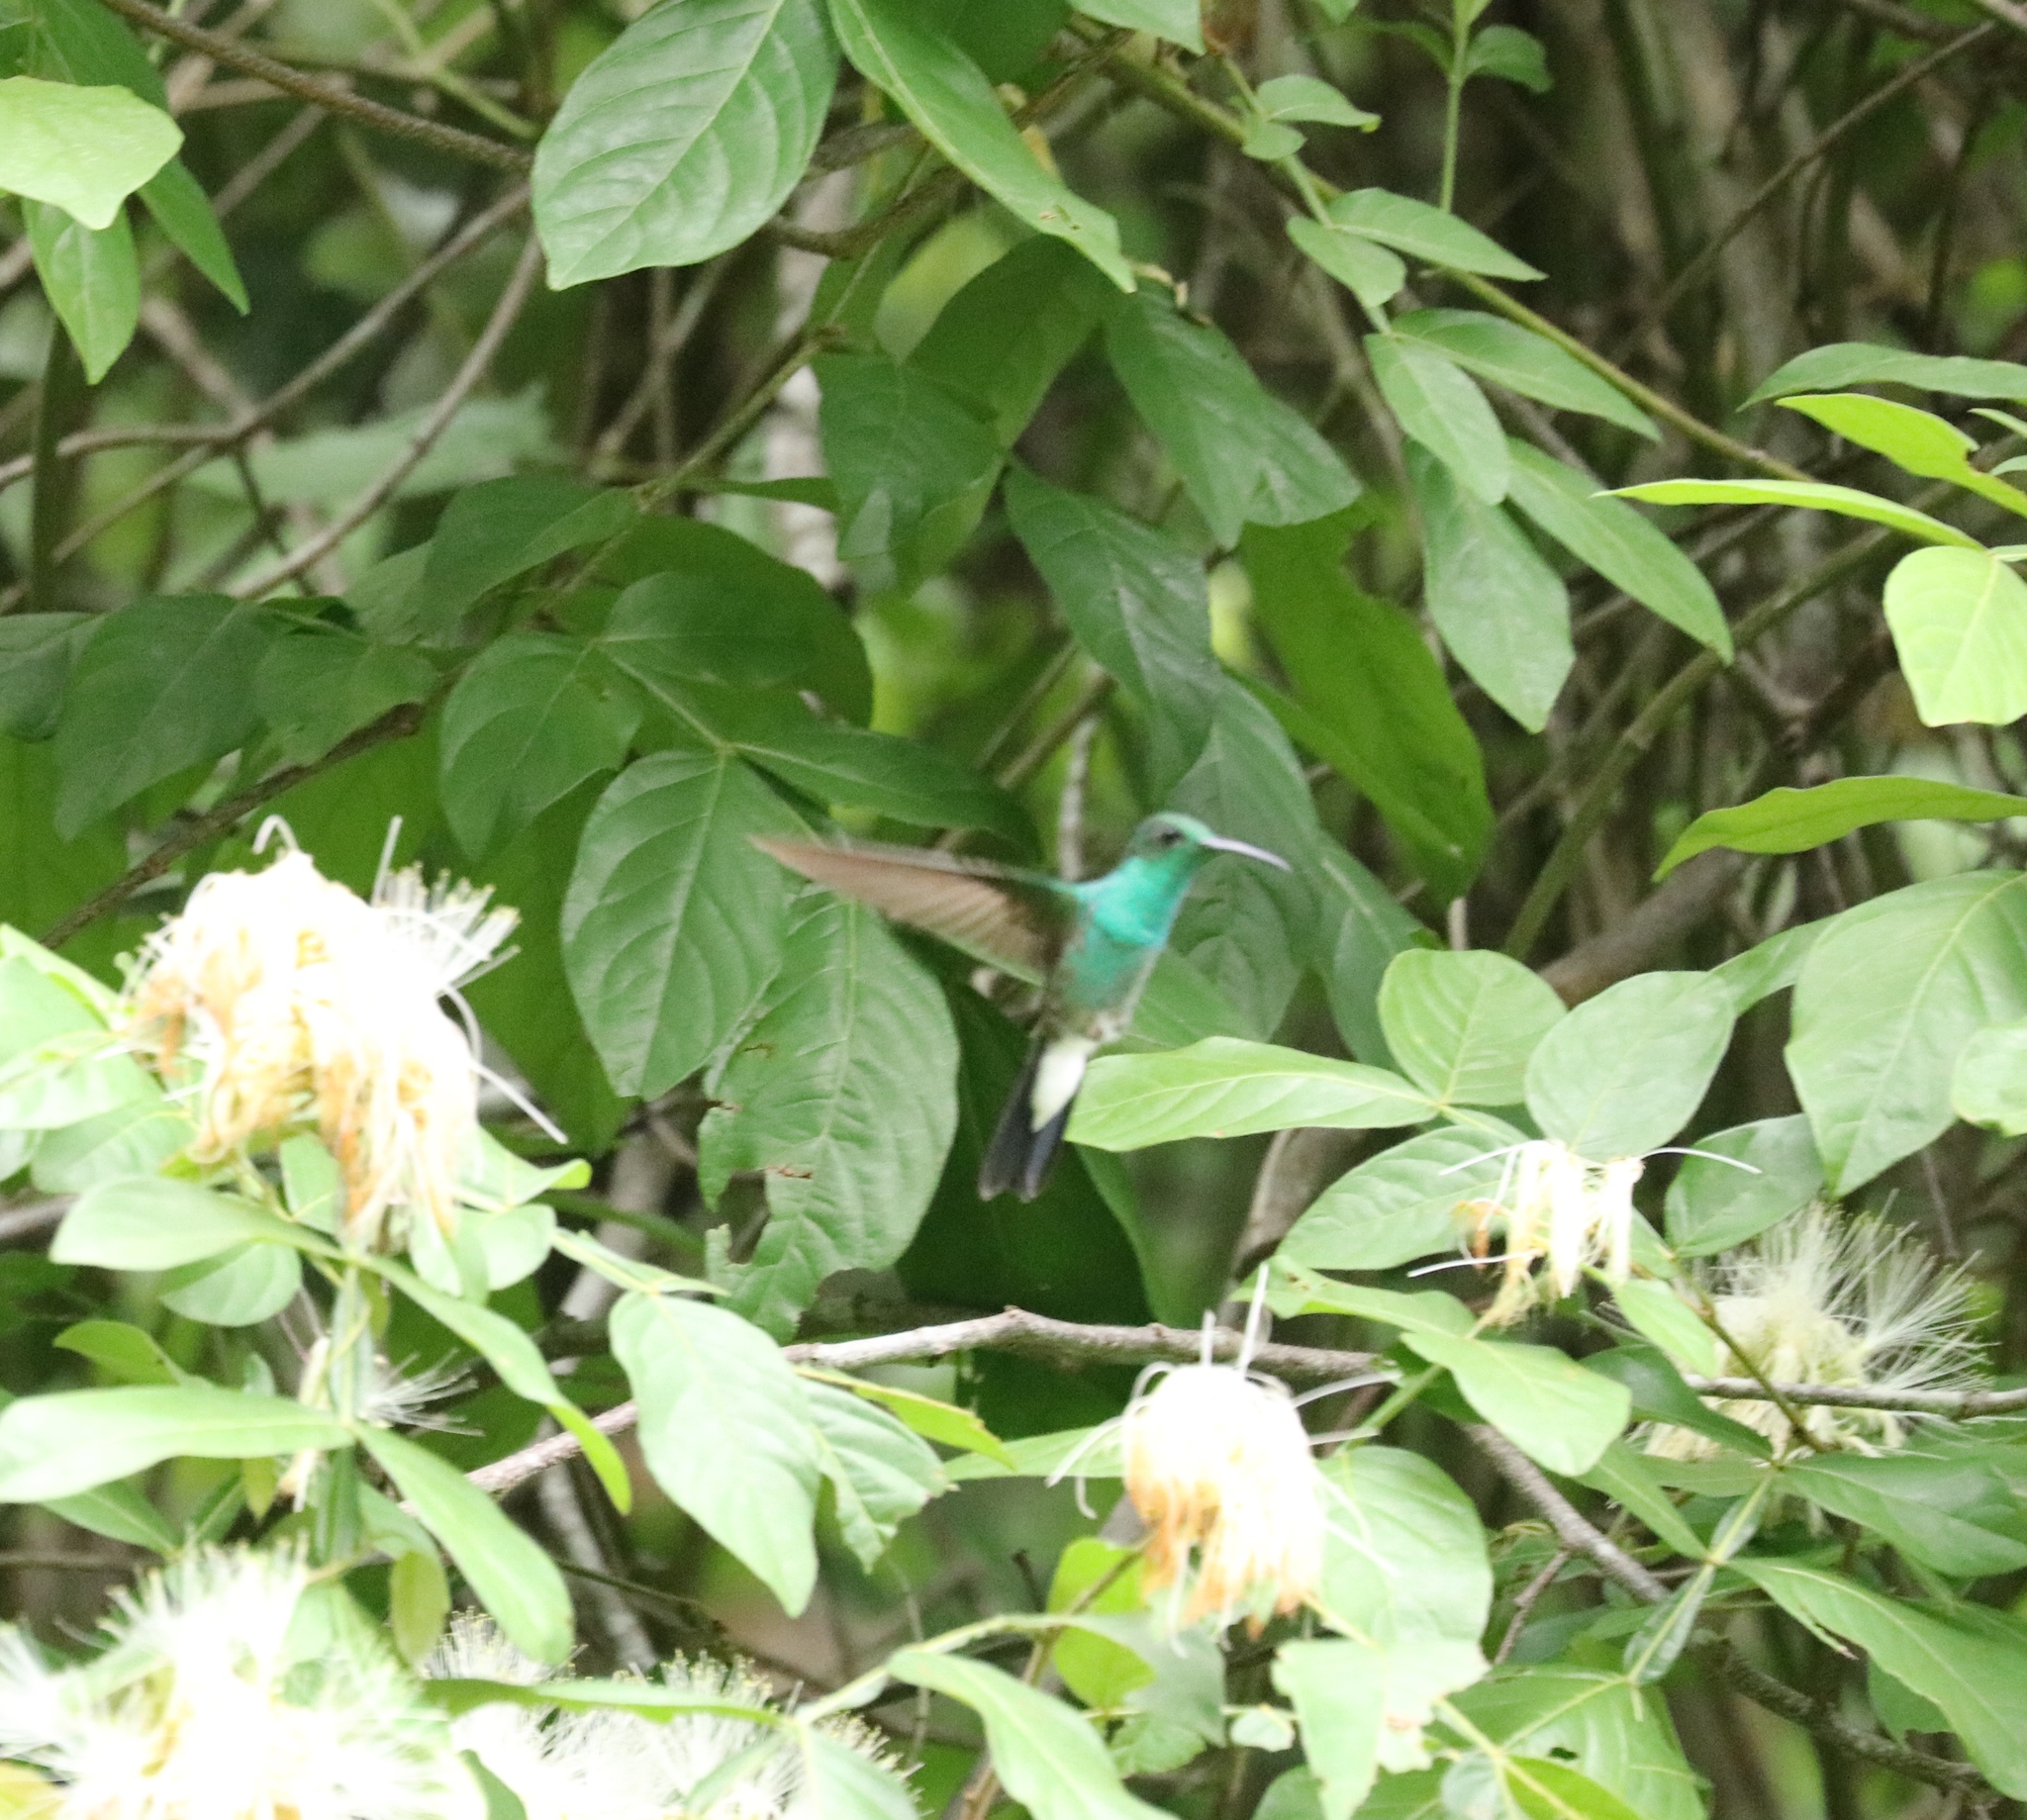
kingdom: Animalia
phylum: Chordata
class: Aves
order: Apodiformes
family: Trochilidae
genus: Chalybura
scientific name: Chalybura buffonii
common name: White-vented plumeleteer
